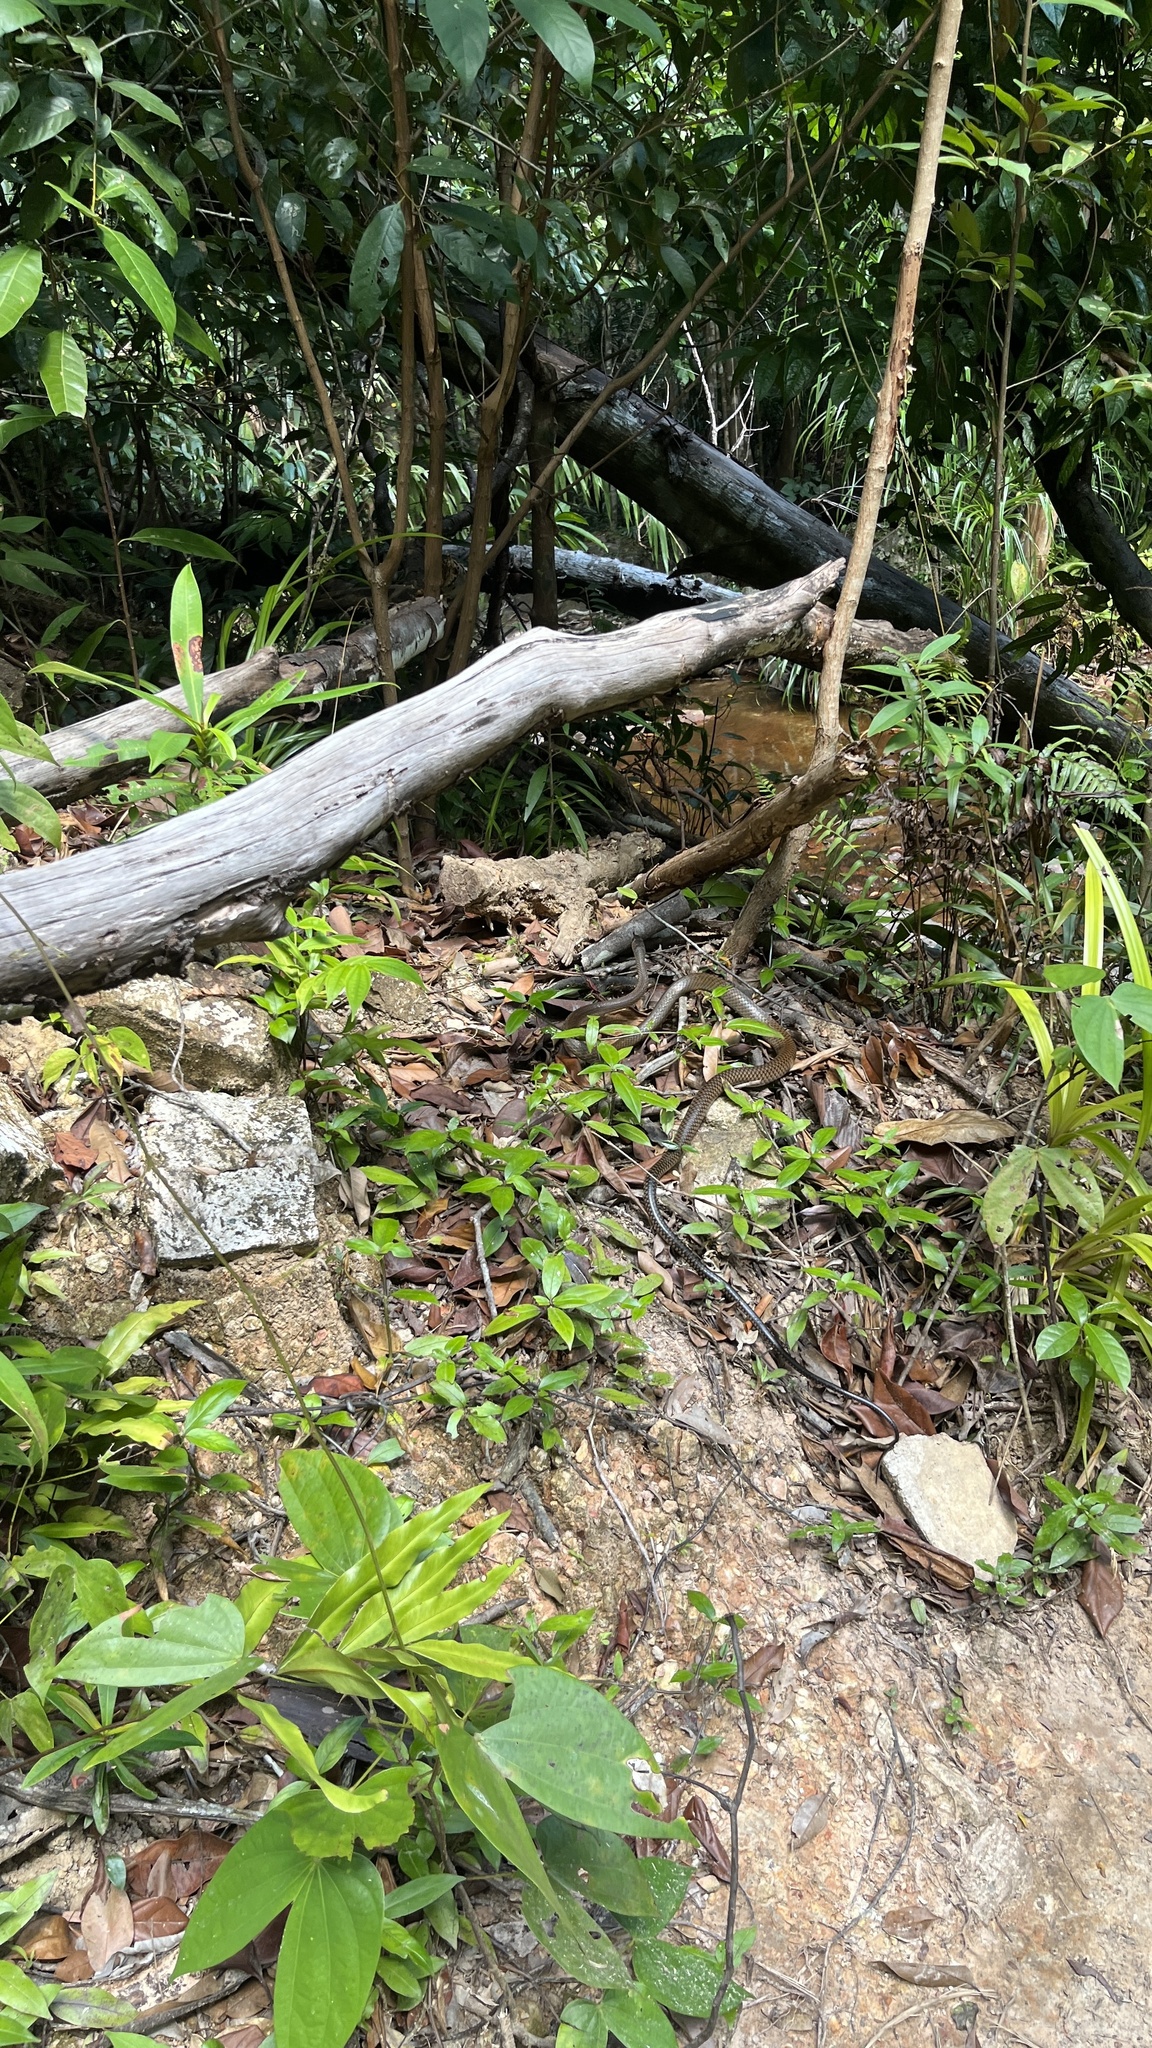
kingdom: Animalia
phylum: Chordata
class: Squamata
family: Colubridae
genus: Ptyas
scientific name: Ptyas korros
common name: Indo-chinese rat snake
